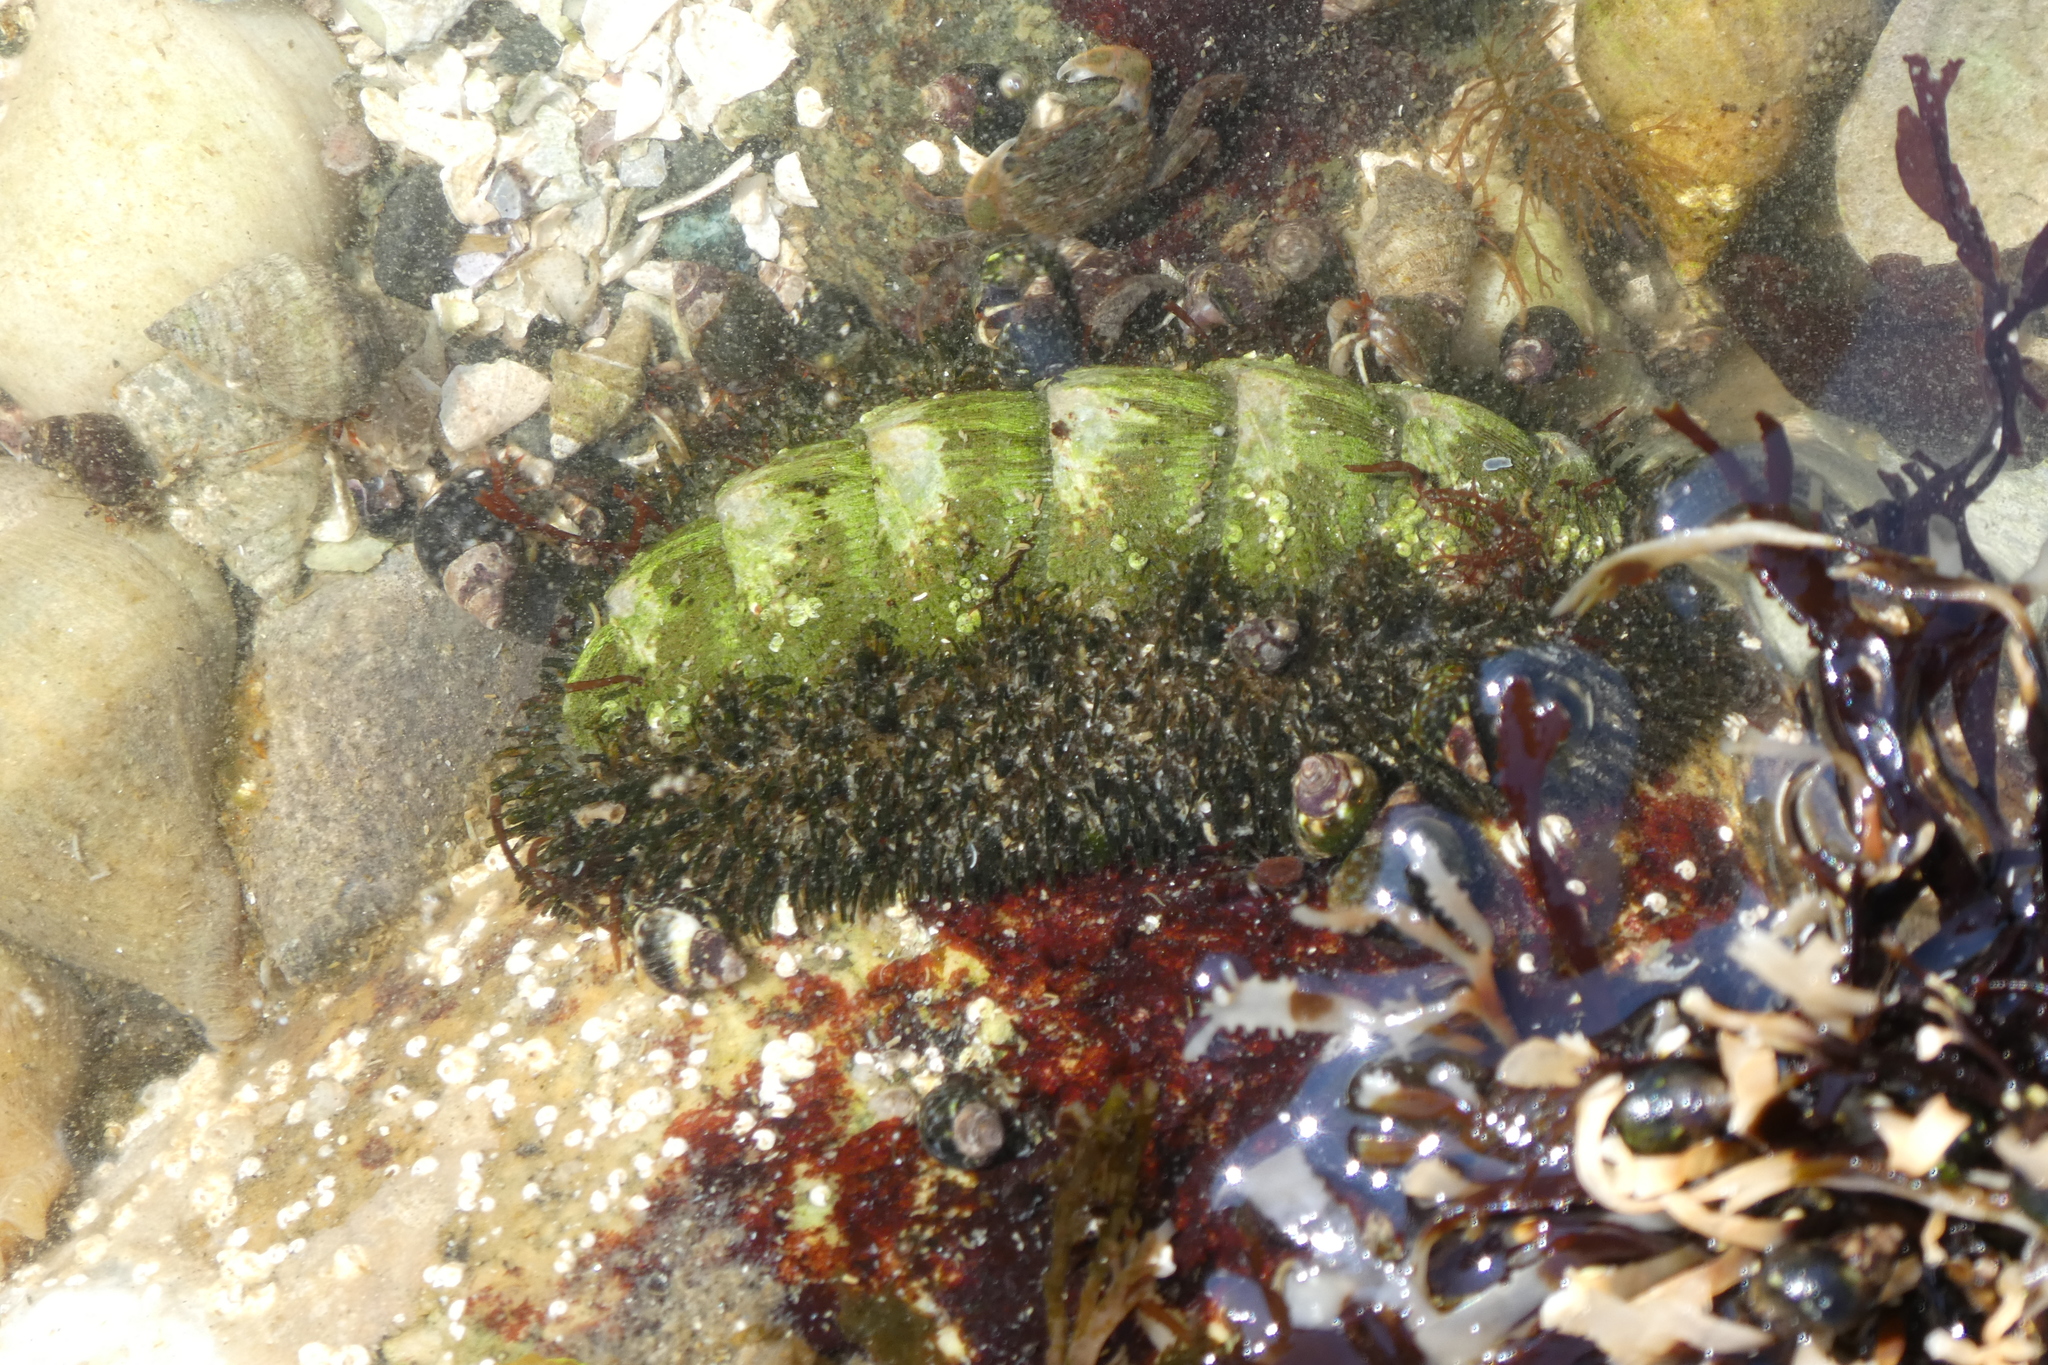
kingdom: Animalia
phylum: Mollusca
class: Polyplacophora
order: Chitonida
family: Mopaliidae
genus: Mopalia
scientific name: Mopalia muscosa
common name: Mossy chiton
